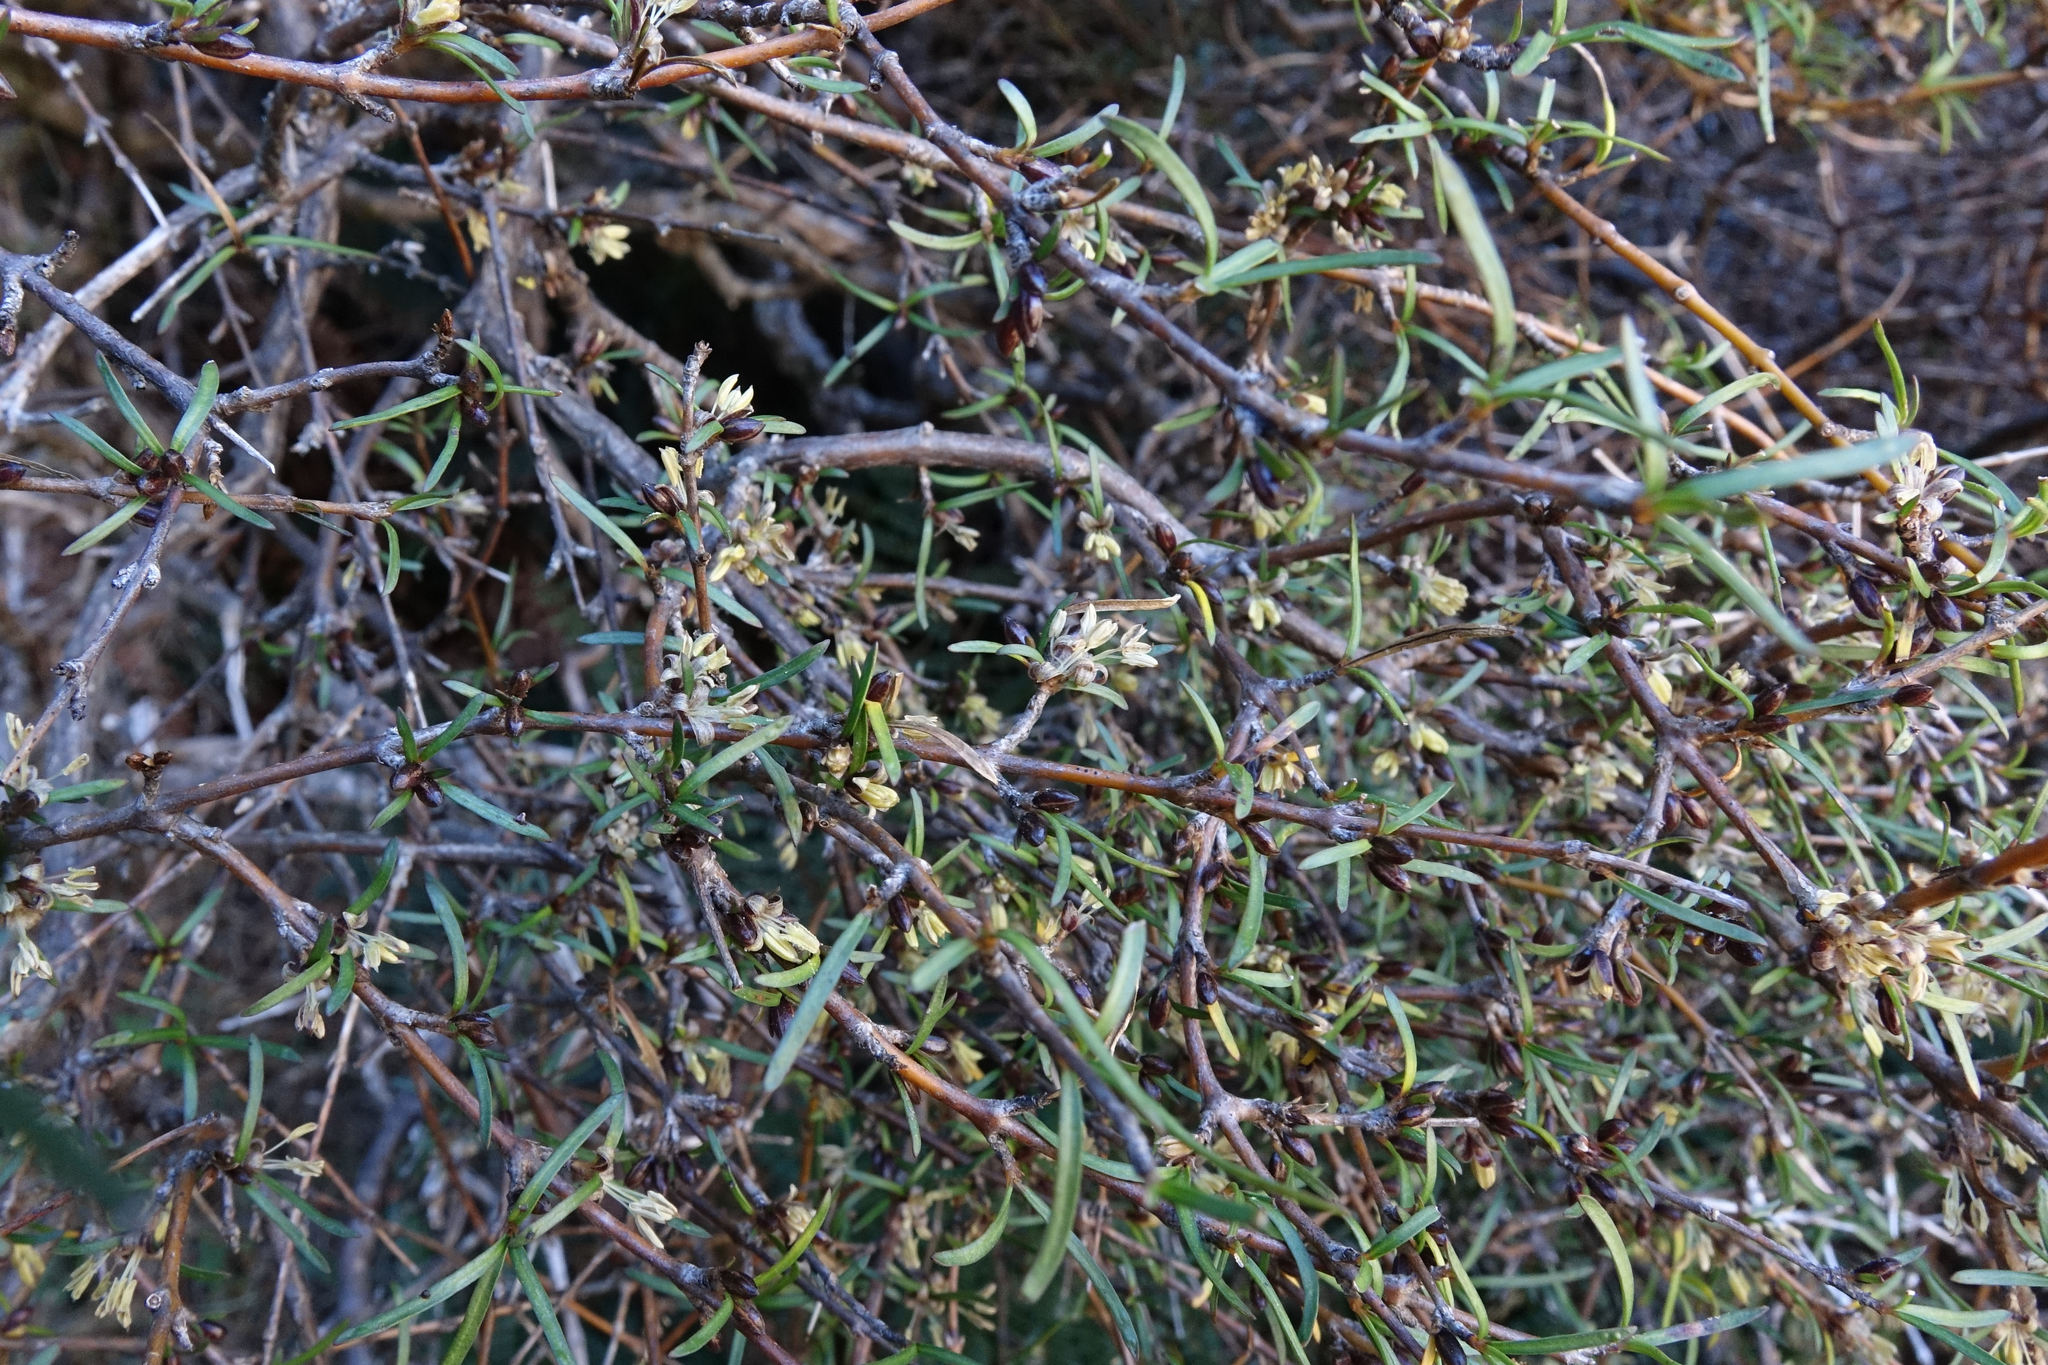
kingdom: Plantae
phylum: Tracheophyta
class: Magnoliopsida
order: Gentianales
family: Rubiaceae
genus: Coprosma
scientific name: Coprosma rugosa
